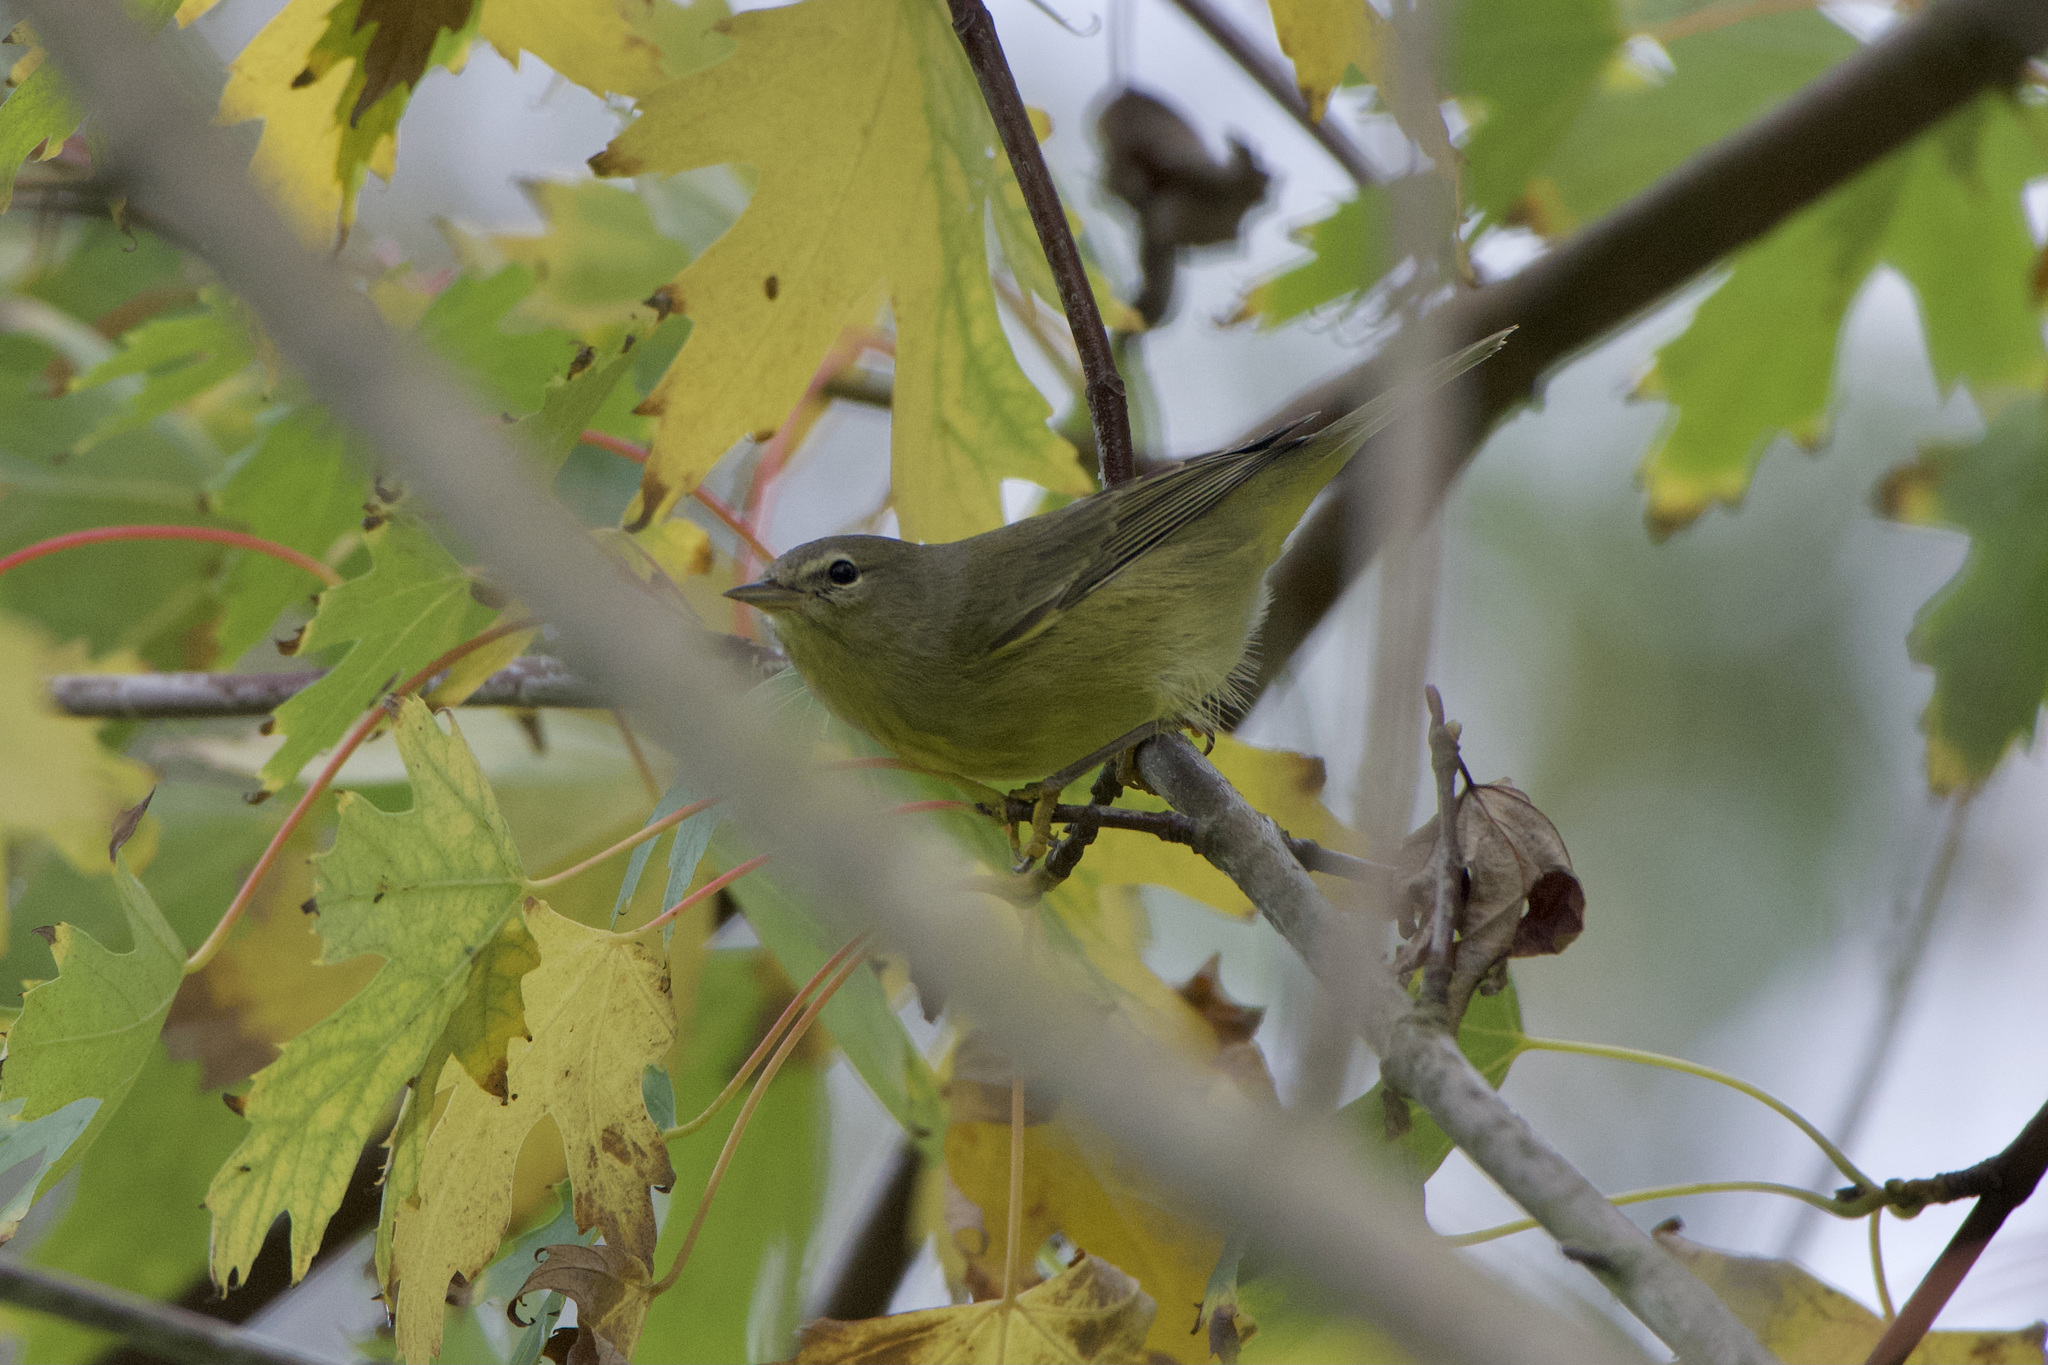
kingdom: Animalia
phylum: Chordata
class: Aves
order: Passeriformes
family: Parulidae
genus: Leiothlypis
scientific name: Leiothlypis celata
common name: Orange-crowned warbler
